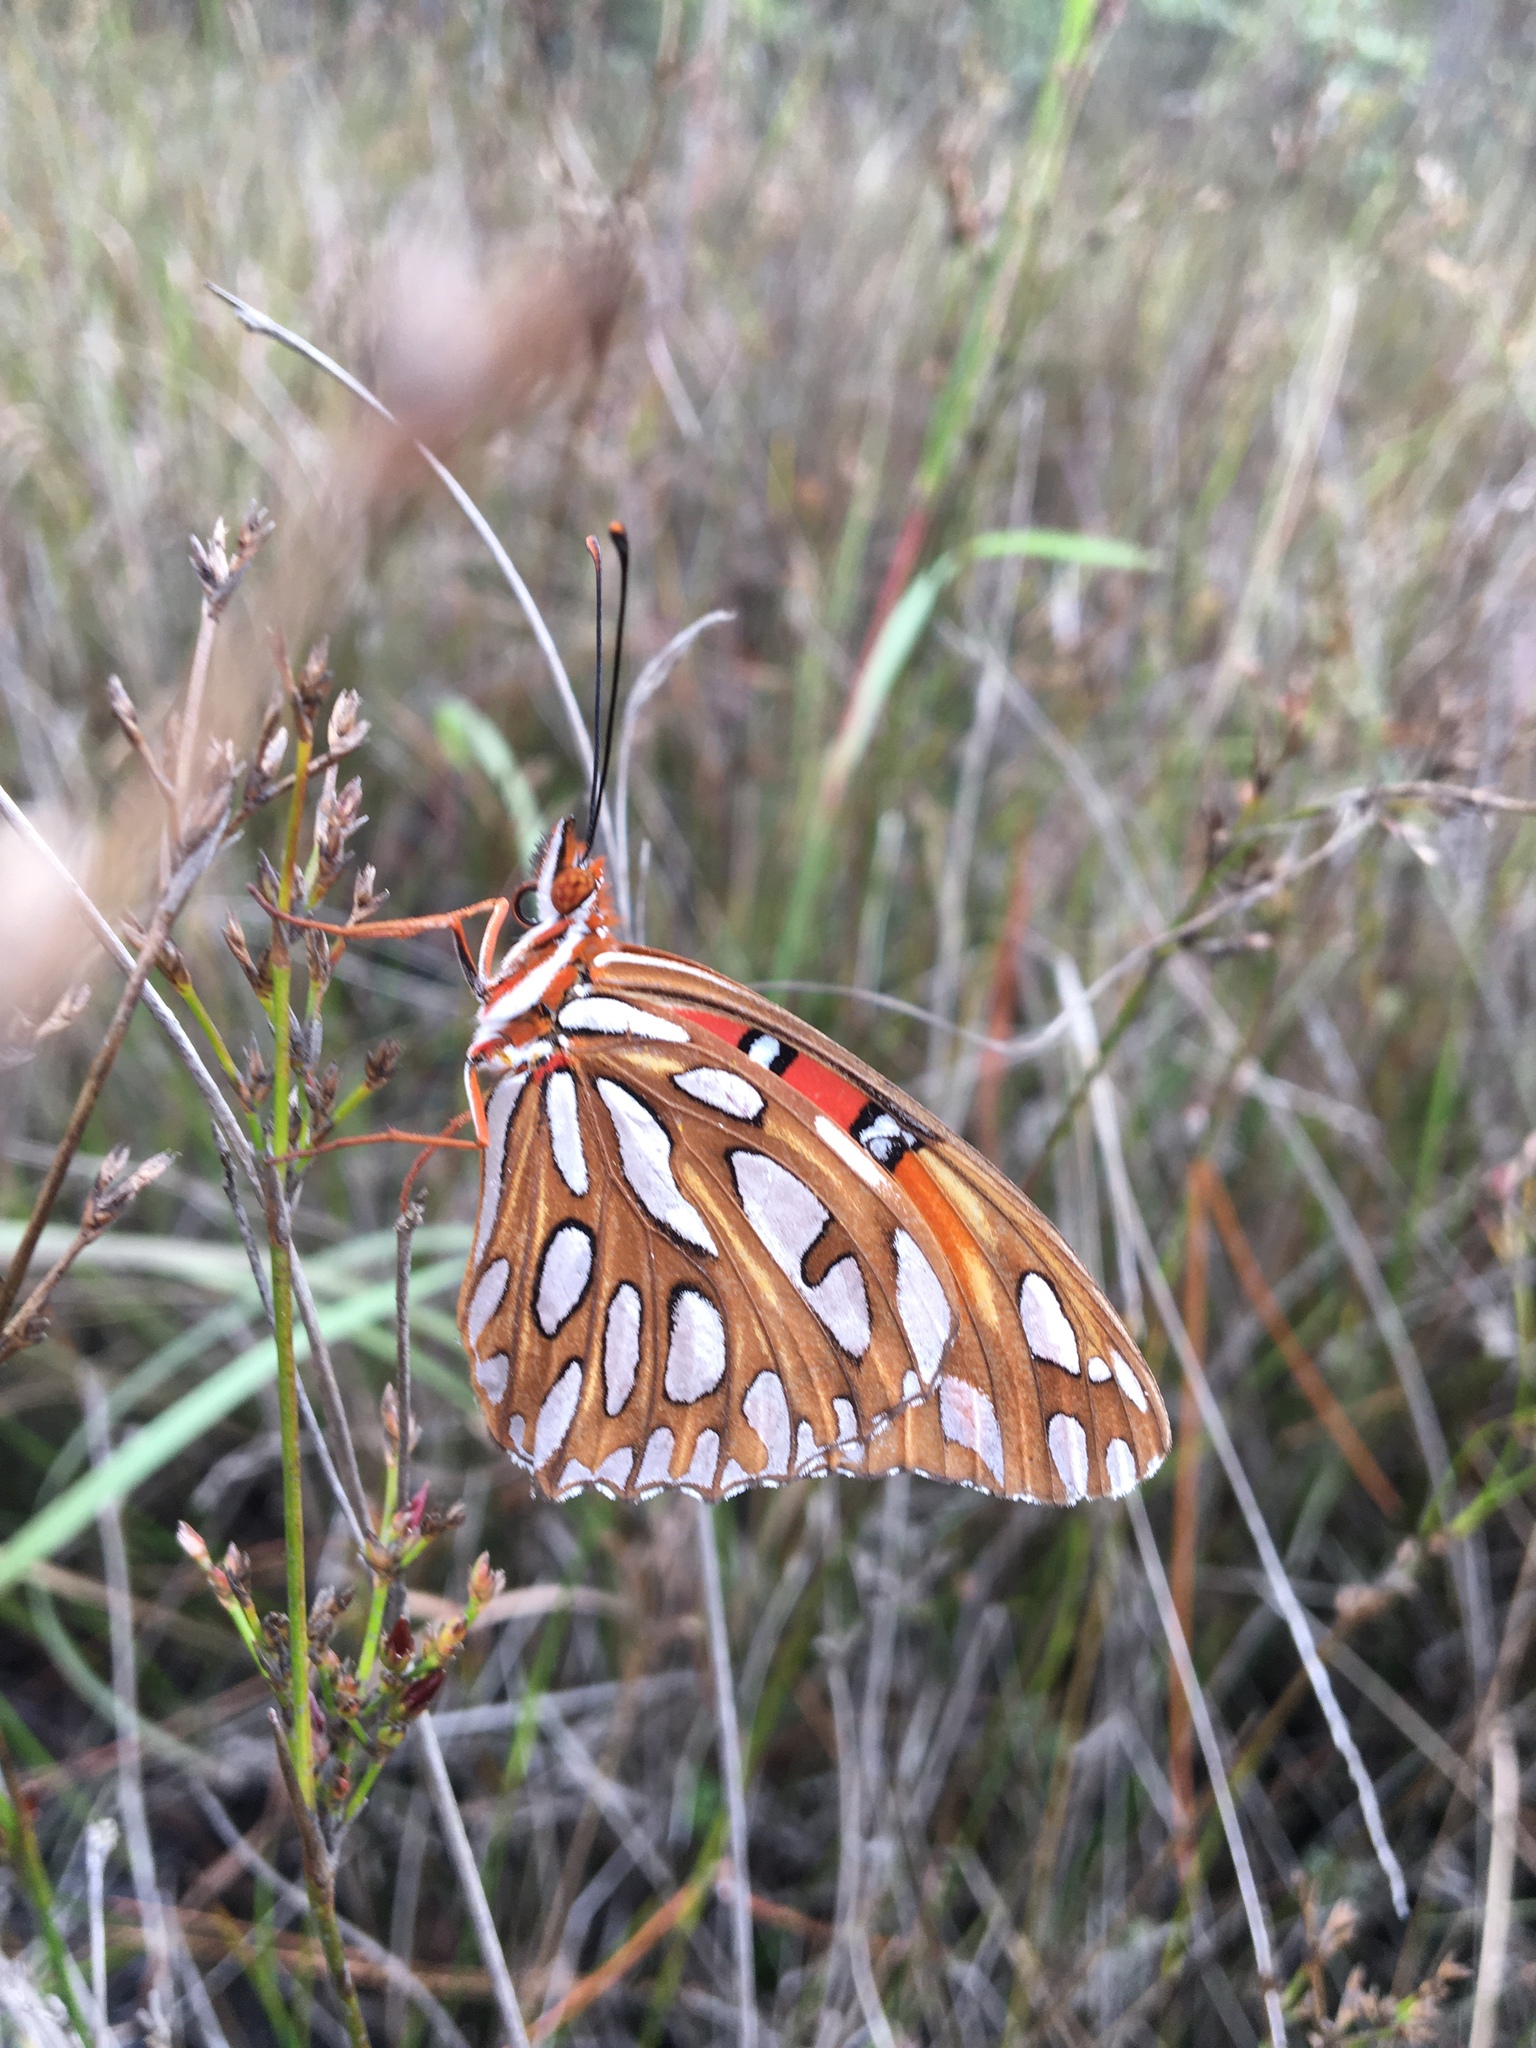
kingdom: Animalia
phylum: Arthropoda
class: Insecta
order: Lepidoptera
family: Nymphalidae
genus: Dione
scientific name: Dione vanillae
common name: Gulf fritillary
